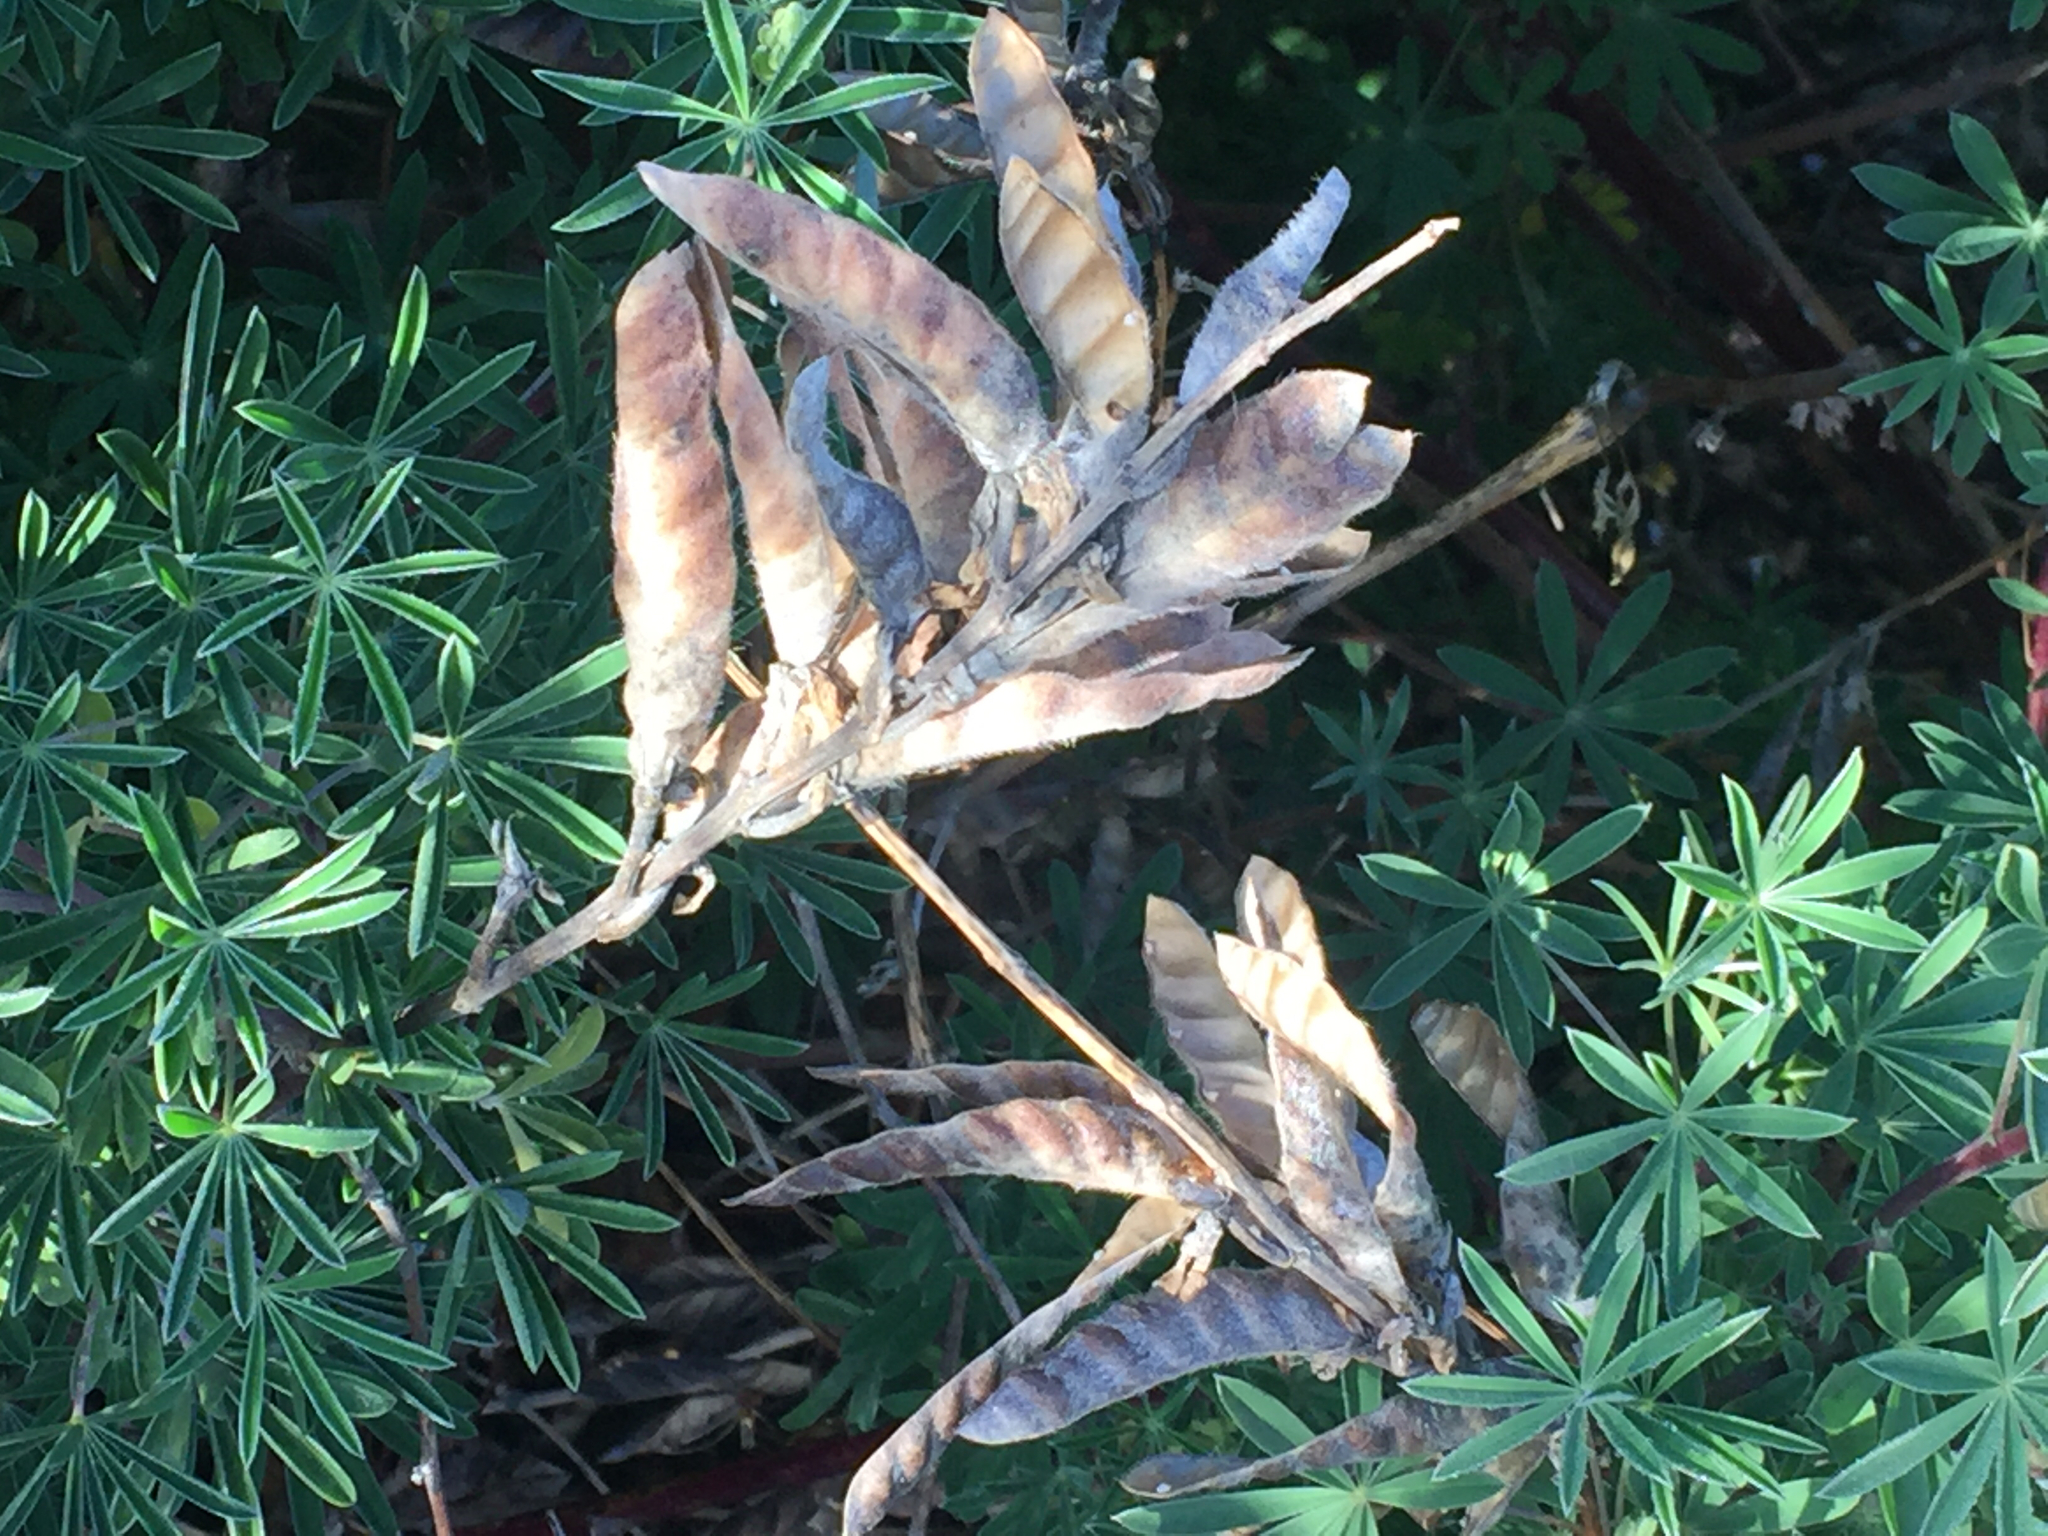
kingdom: Plantae
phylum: Tracheophyta
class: Magnoliopsida
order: Fabales
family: Fabaceae
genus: Lupinus
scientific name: Lupinus arboreus
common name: Yellow bush lupine
